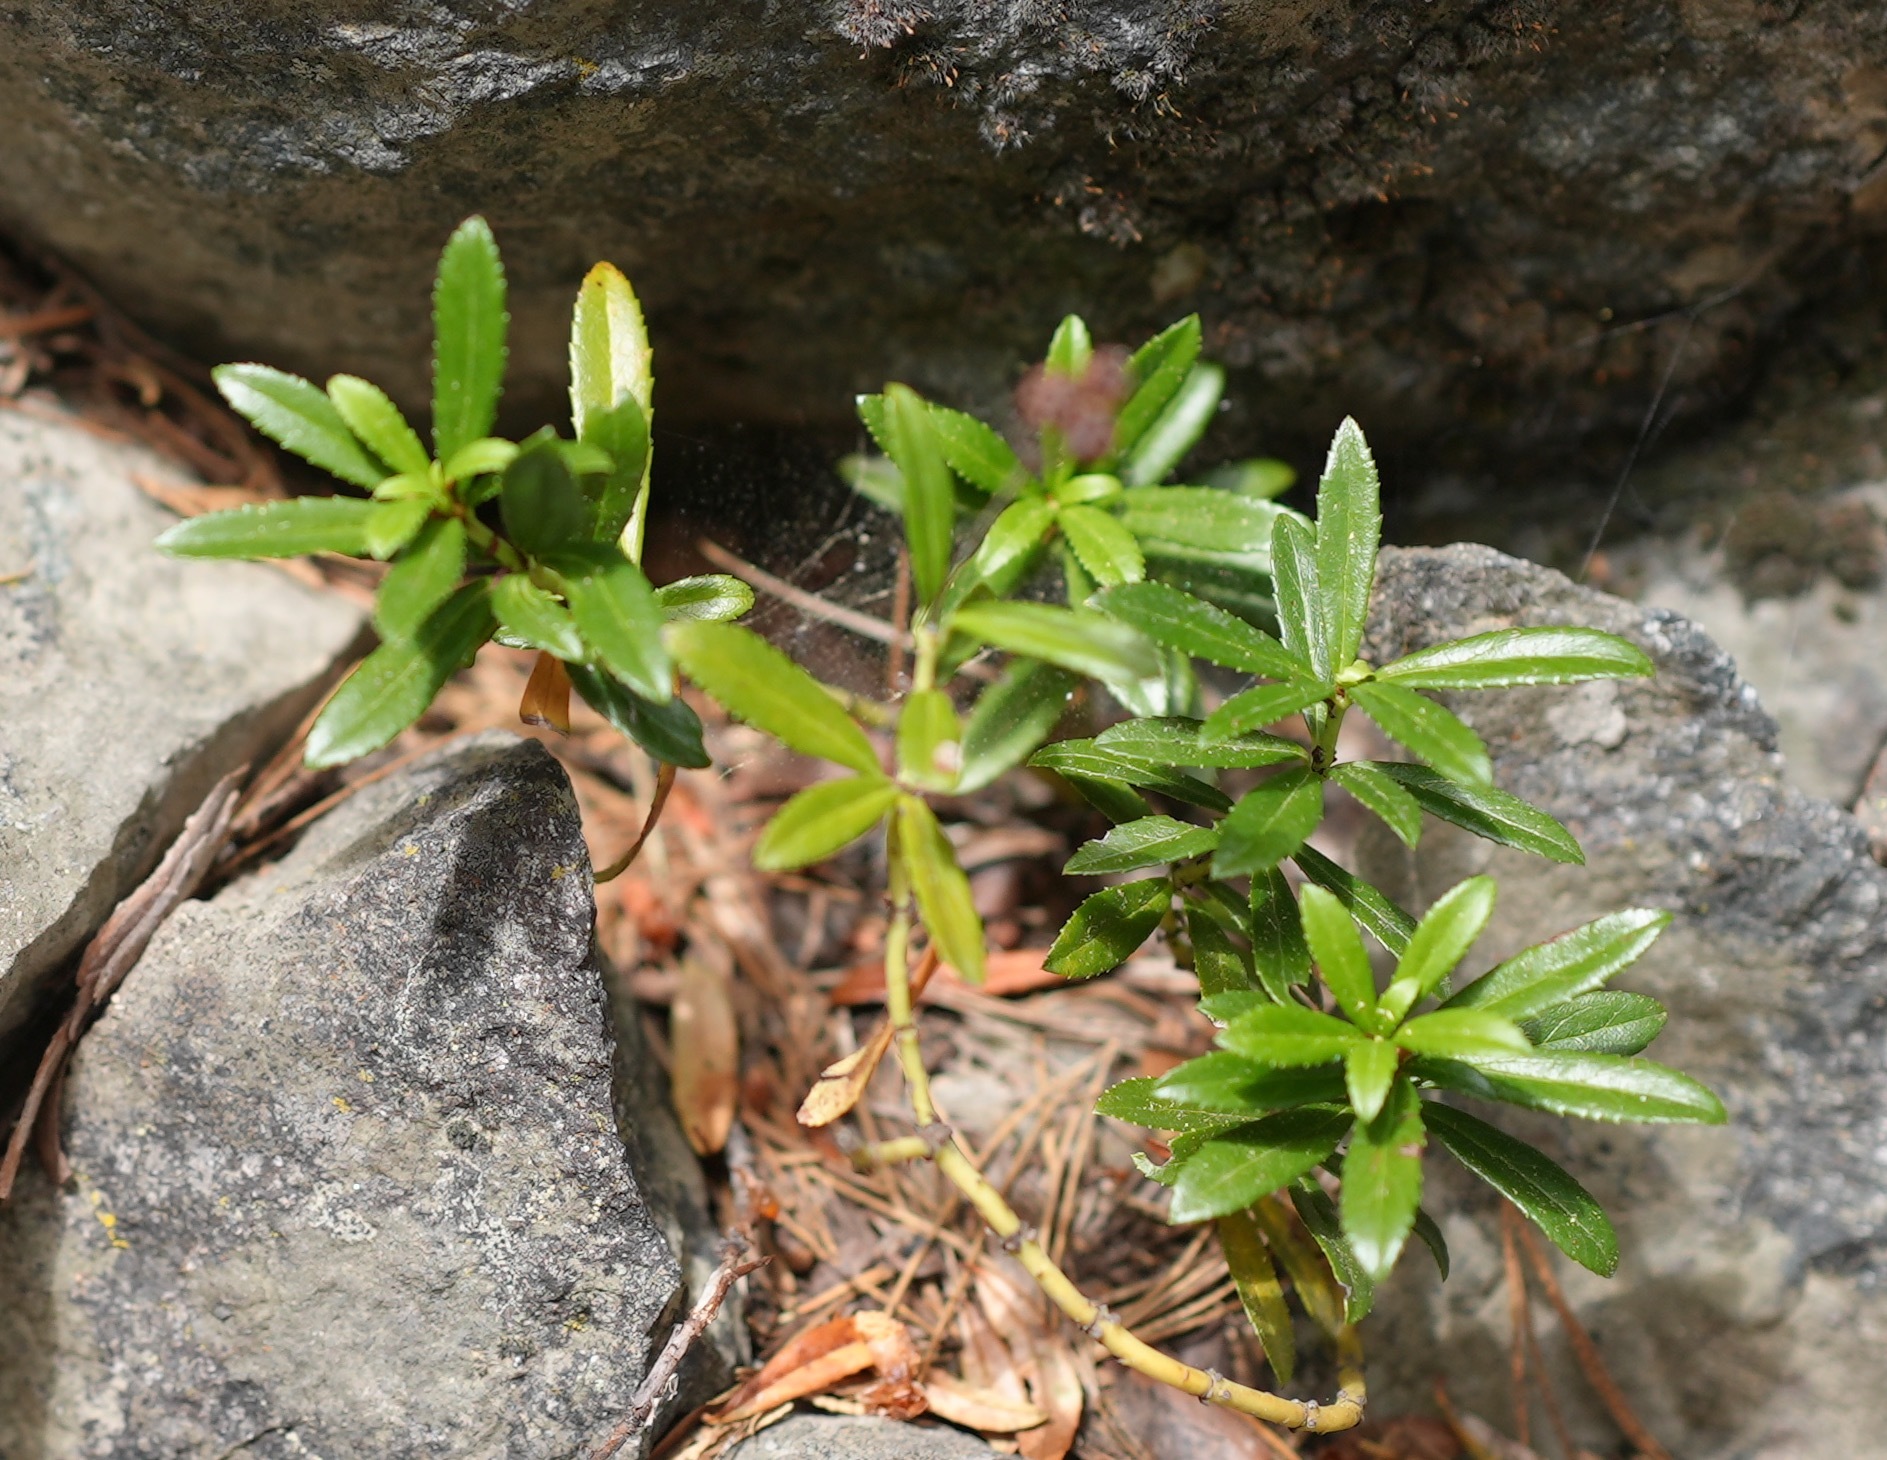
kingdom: Plantae
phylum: Tracheophyta
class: Magnoliopsida
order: Ericales
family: Ericaceae
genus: Chimaphila
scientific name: Chimaphila umbellata
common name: Pipsissewa
